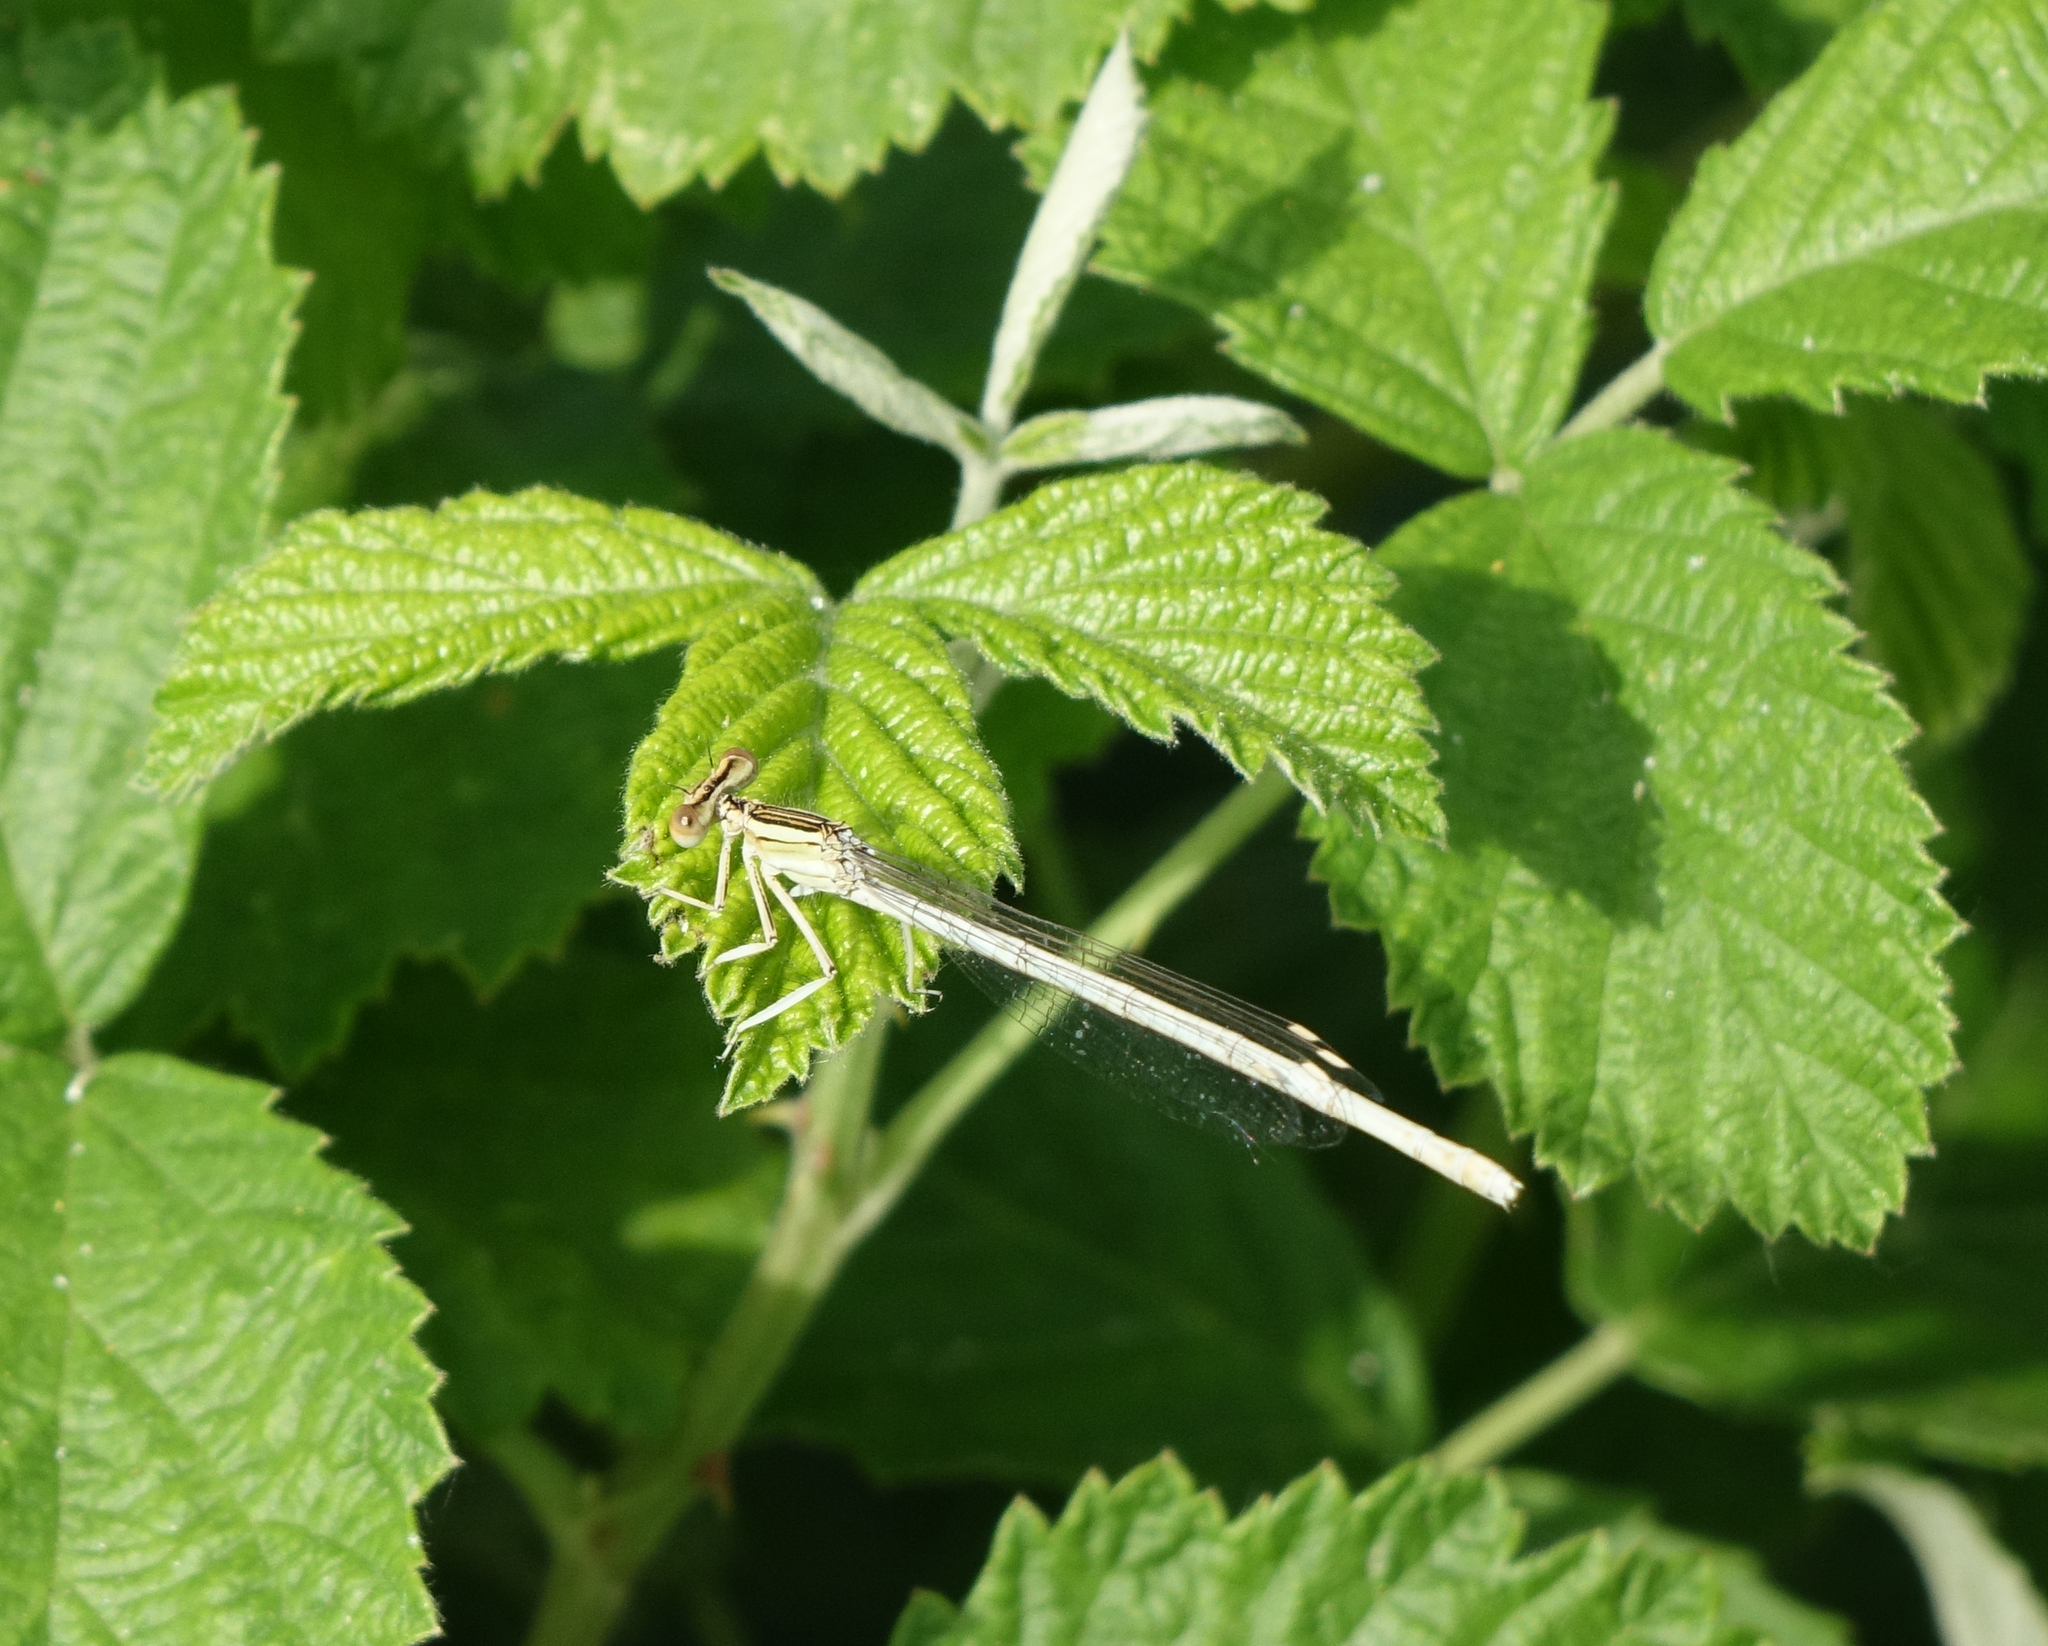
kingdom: Animalia
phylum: Arthropoda
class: Insecta
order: Odonata
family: Platycnemididae
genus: Platycnemis
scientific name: Platycnemis dealbata
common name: Ivory featherleg
